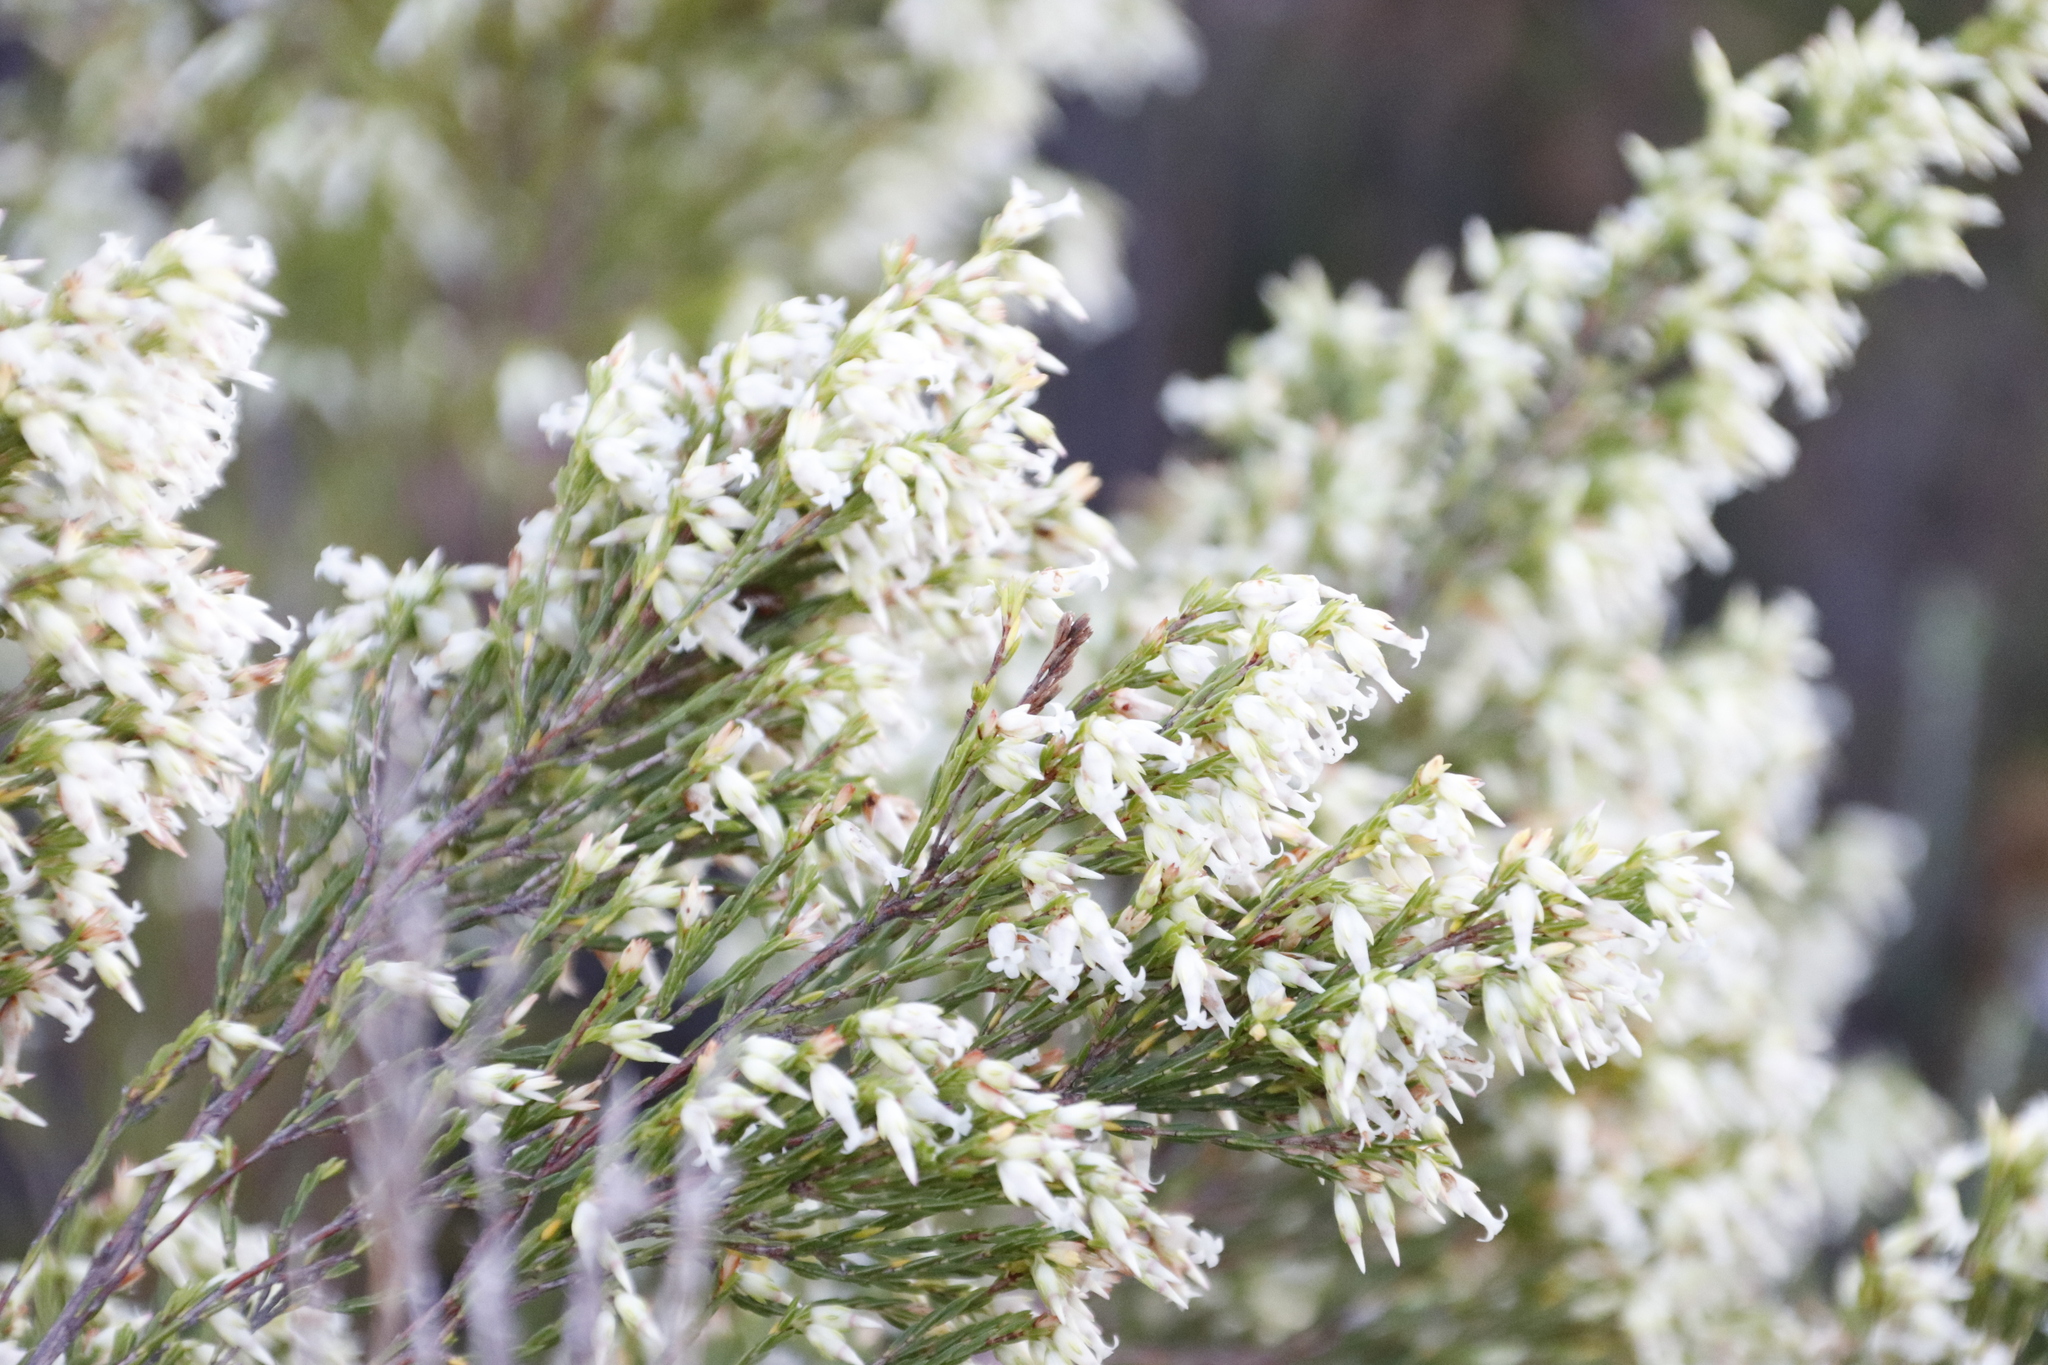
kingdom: Plantae
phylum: Tracheophyta
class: Magnoliopsida
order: Ericales
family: Ericaceae
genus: Erica
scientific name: Erica lutea
